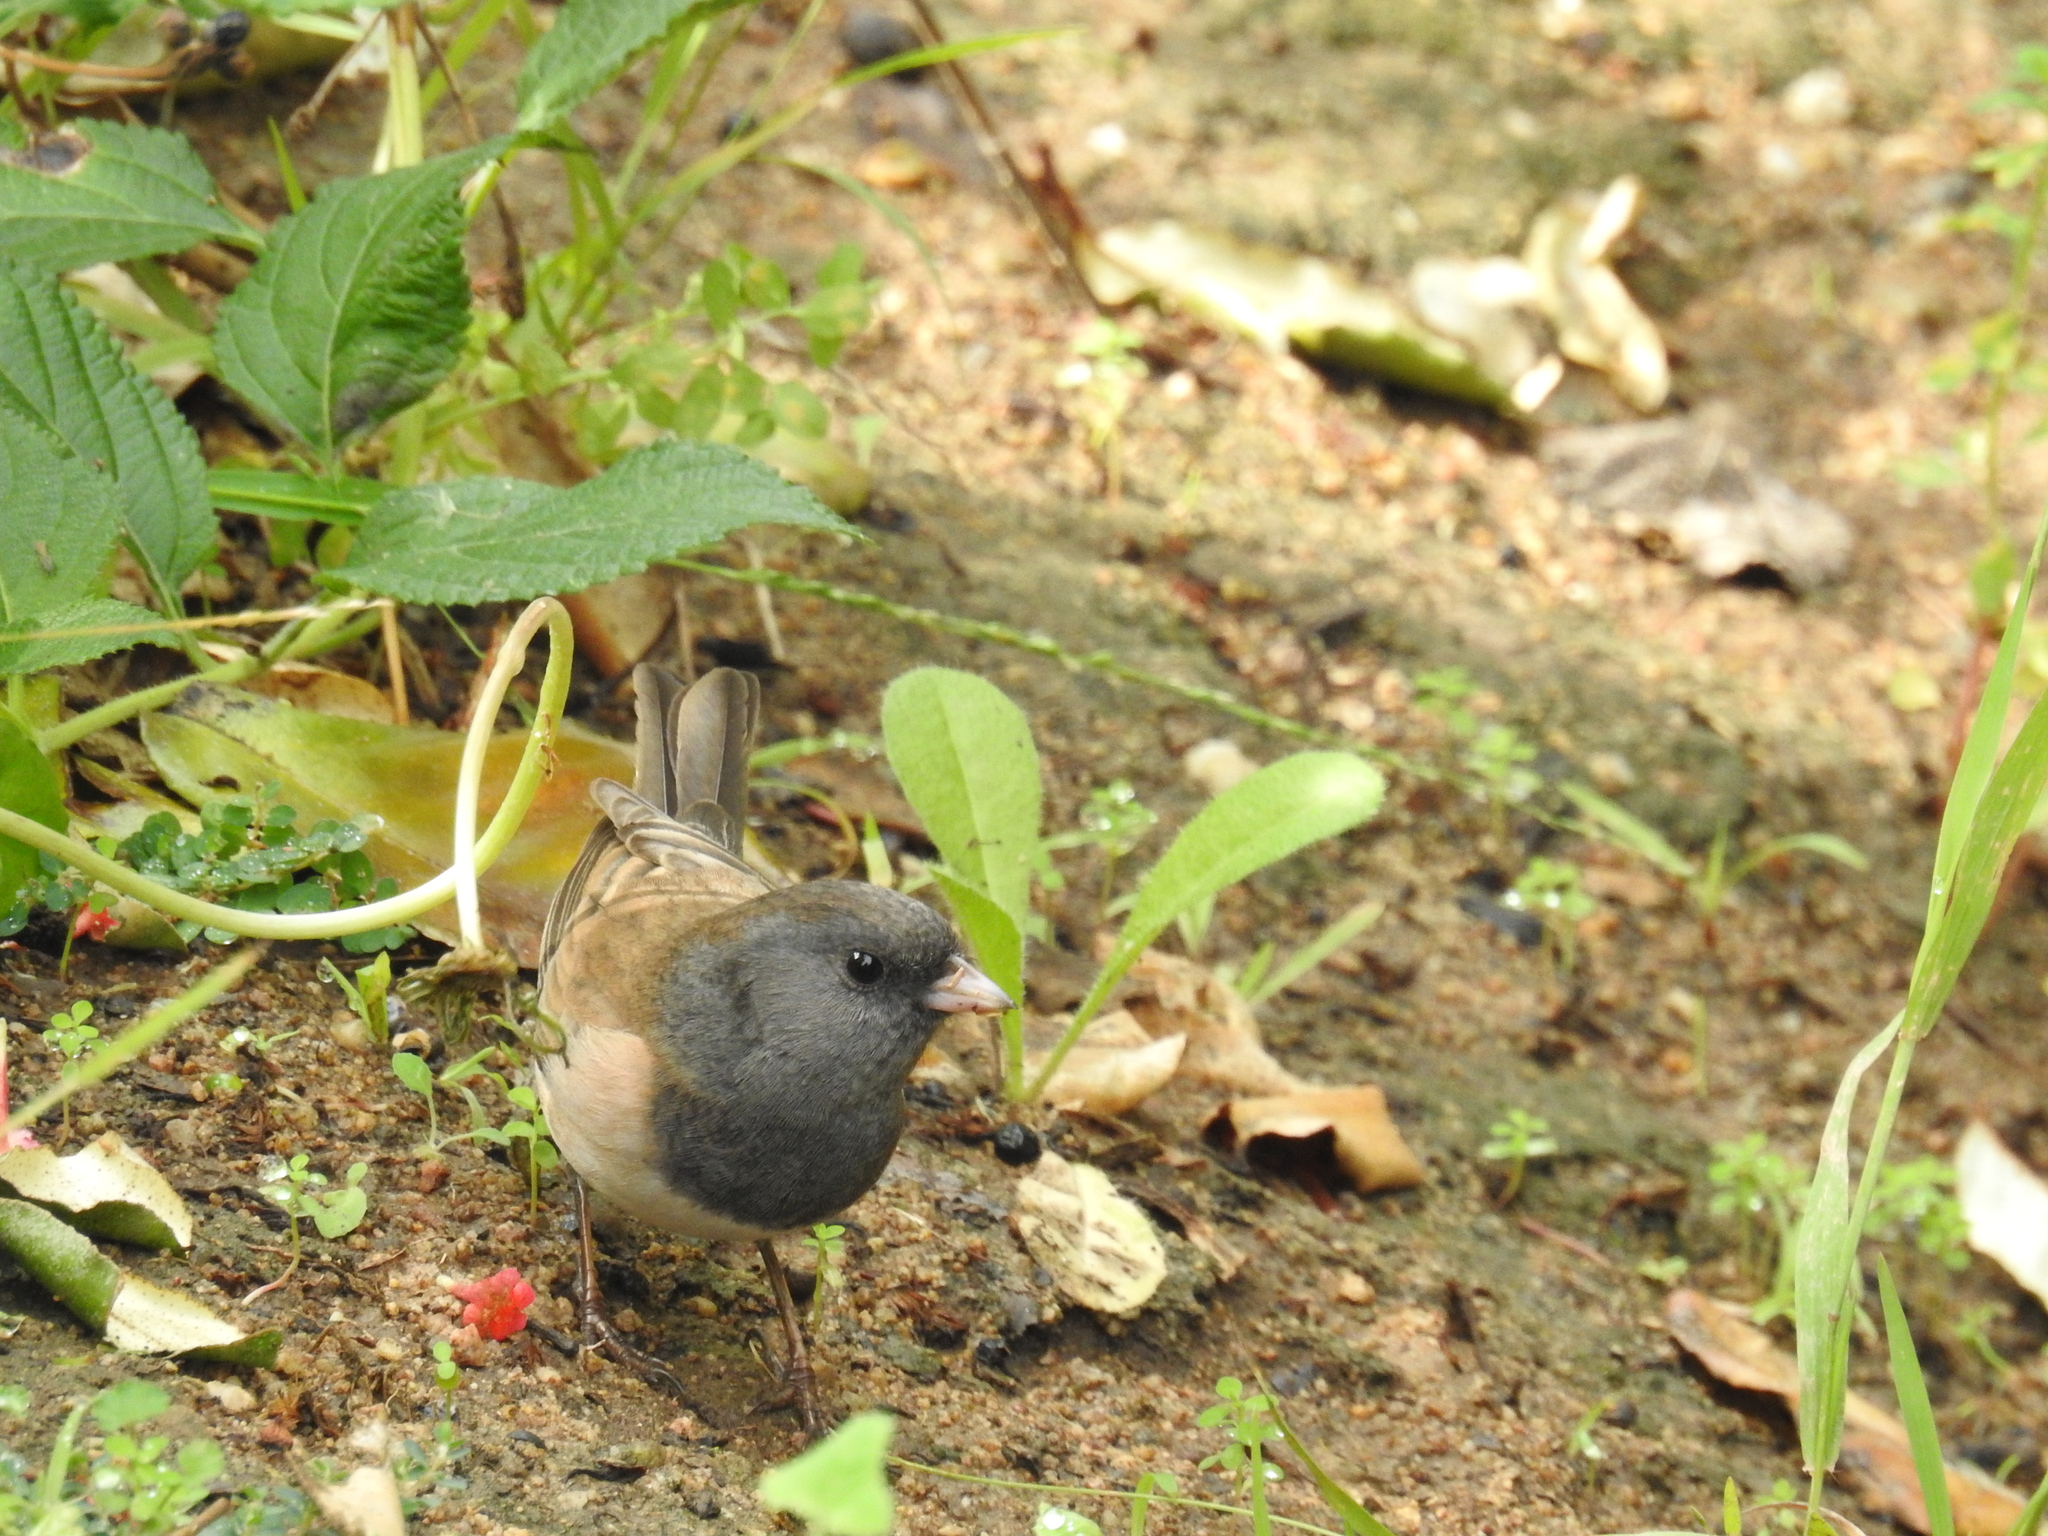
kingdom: Animalia
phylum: Chordata
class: Aves
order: Passeriformes
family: Passerellidae
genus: Junco
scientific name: Junco hyemalis
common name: Dark-eyed junco
